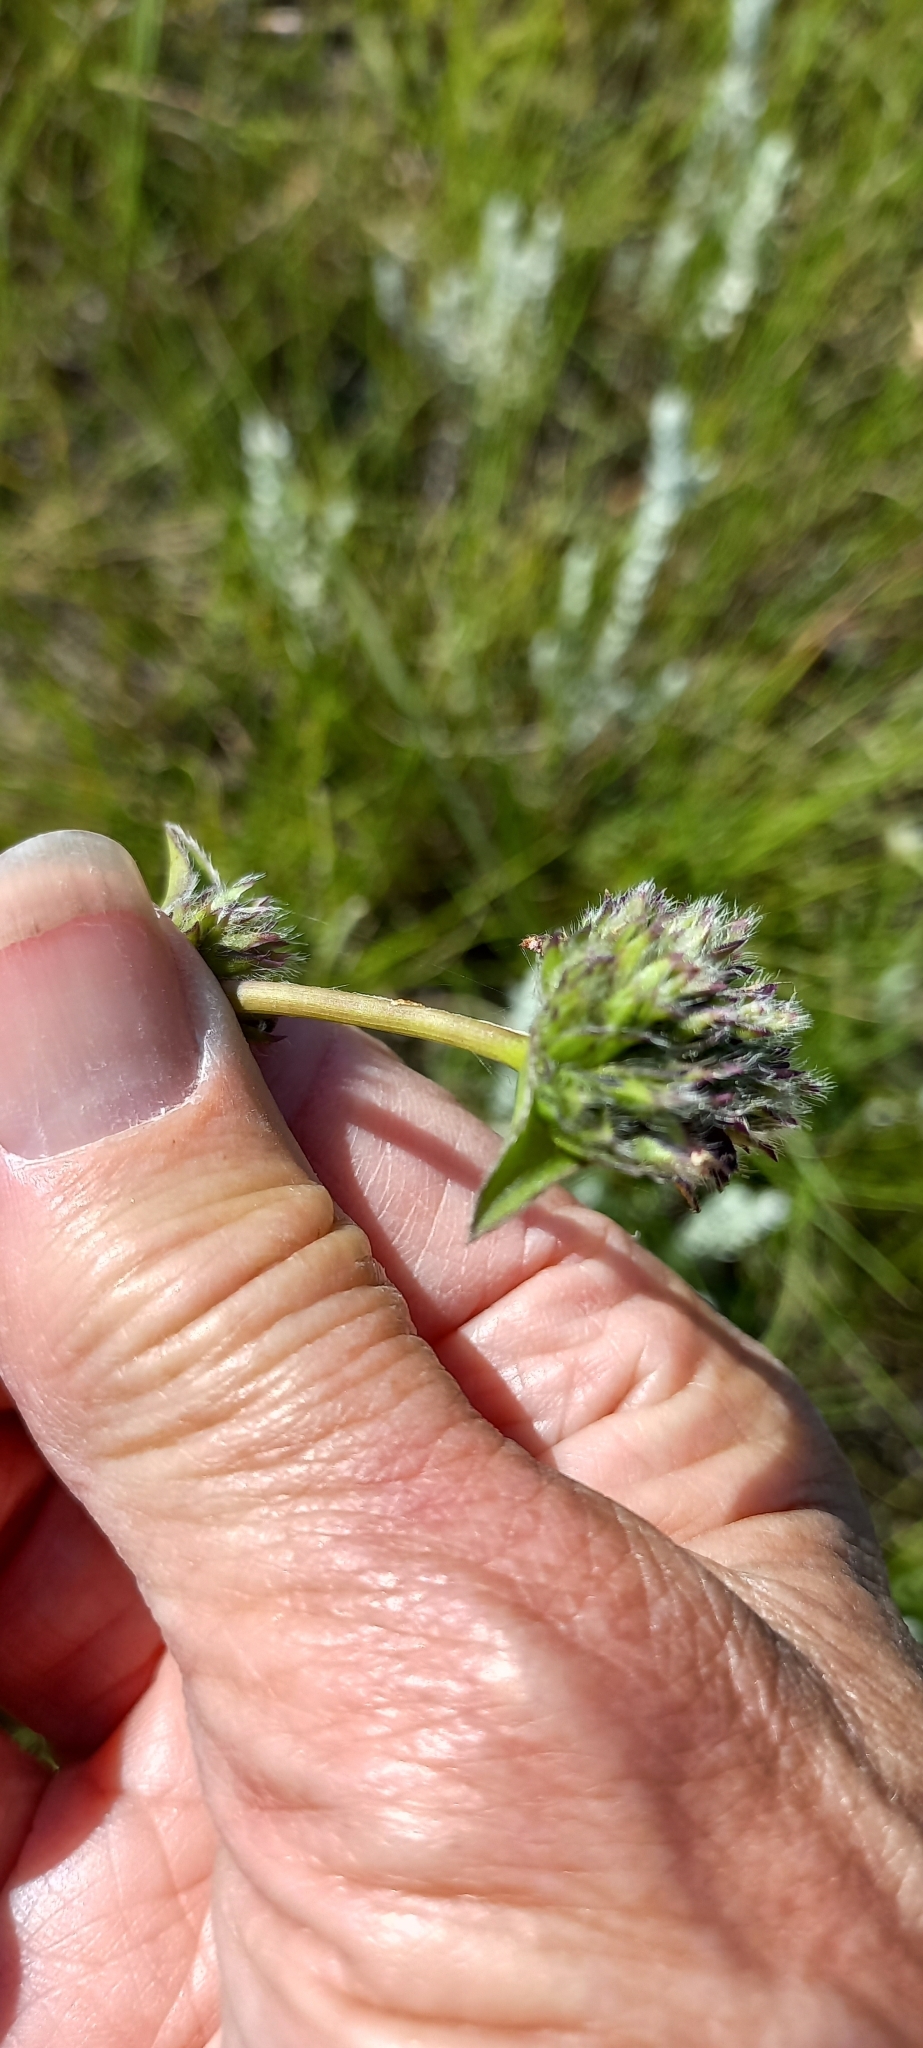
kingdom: Plantae
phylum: Tracheophyta
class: Liliopsida
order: Commelinales
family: Commelinaceae
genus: Cyanotis
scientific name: Cyanotis speciosa
